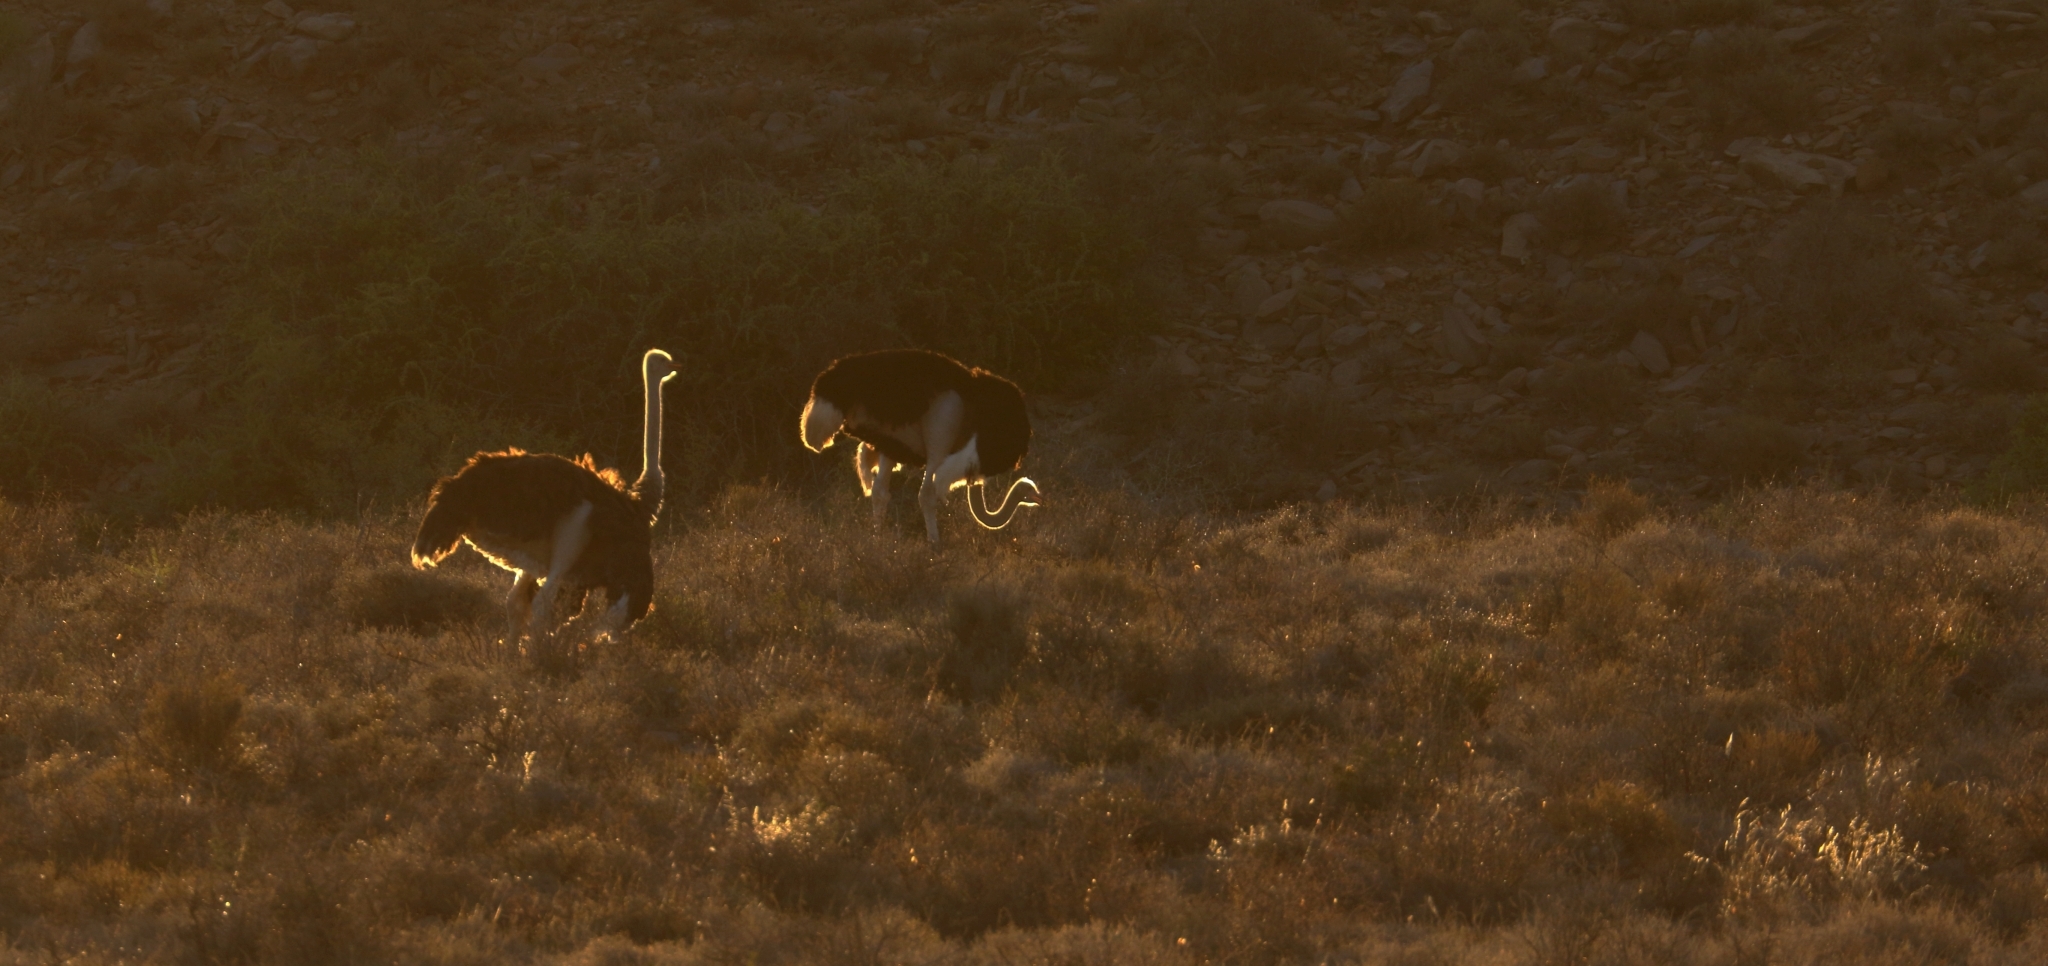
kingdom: Animalia
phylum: Chordata
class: Aves
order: Struthioniformes
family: Struthionidae
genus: Struthio
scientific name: Struthio camelus
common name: Common ostrich
